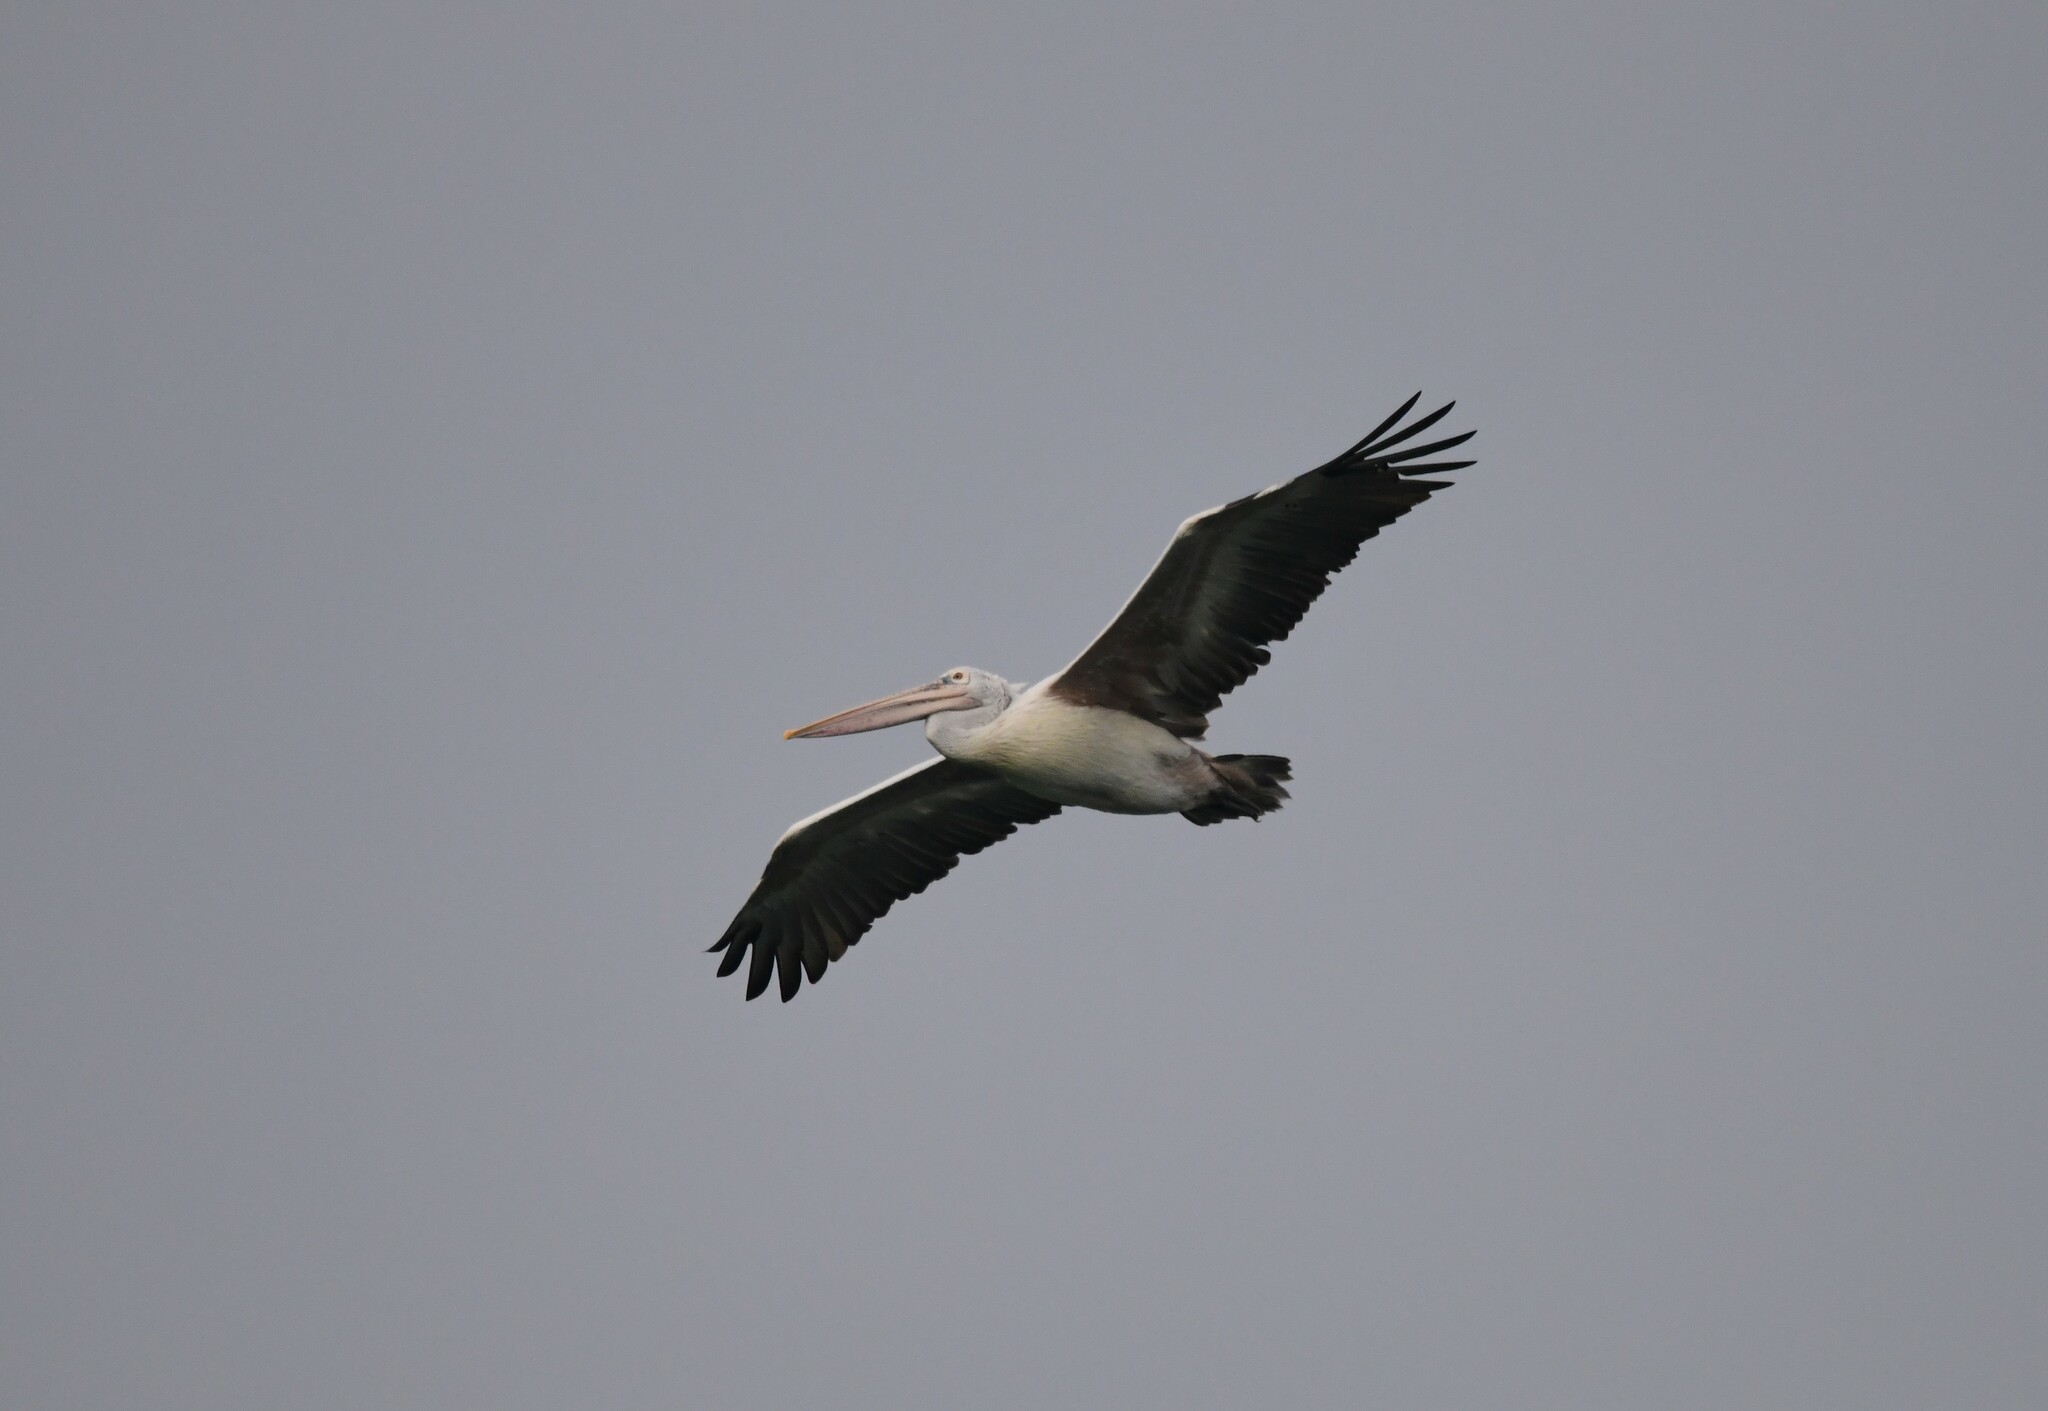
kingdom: Animalia
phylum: Chordata
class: Aves
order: Pelecaniformes
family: Pelecanidae
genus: Pelecanus
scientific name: Pelecanus philippensis
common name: Spot-billed pelican
